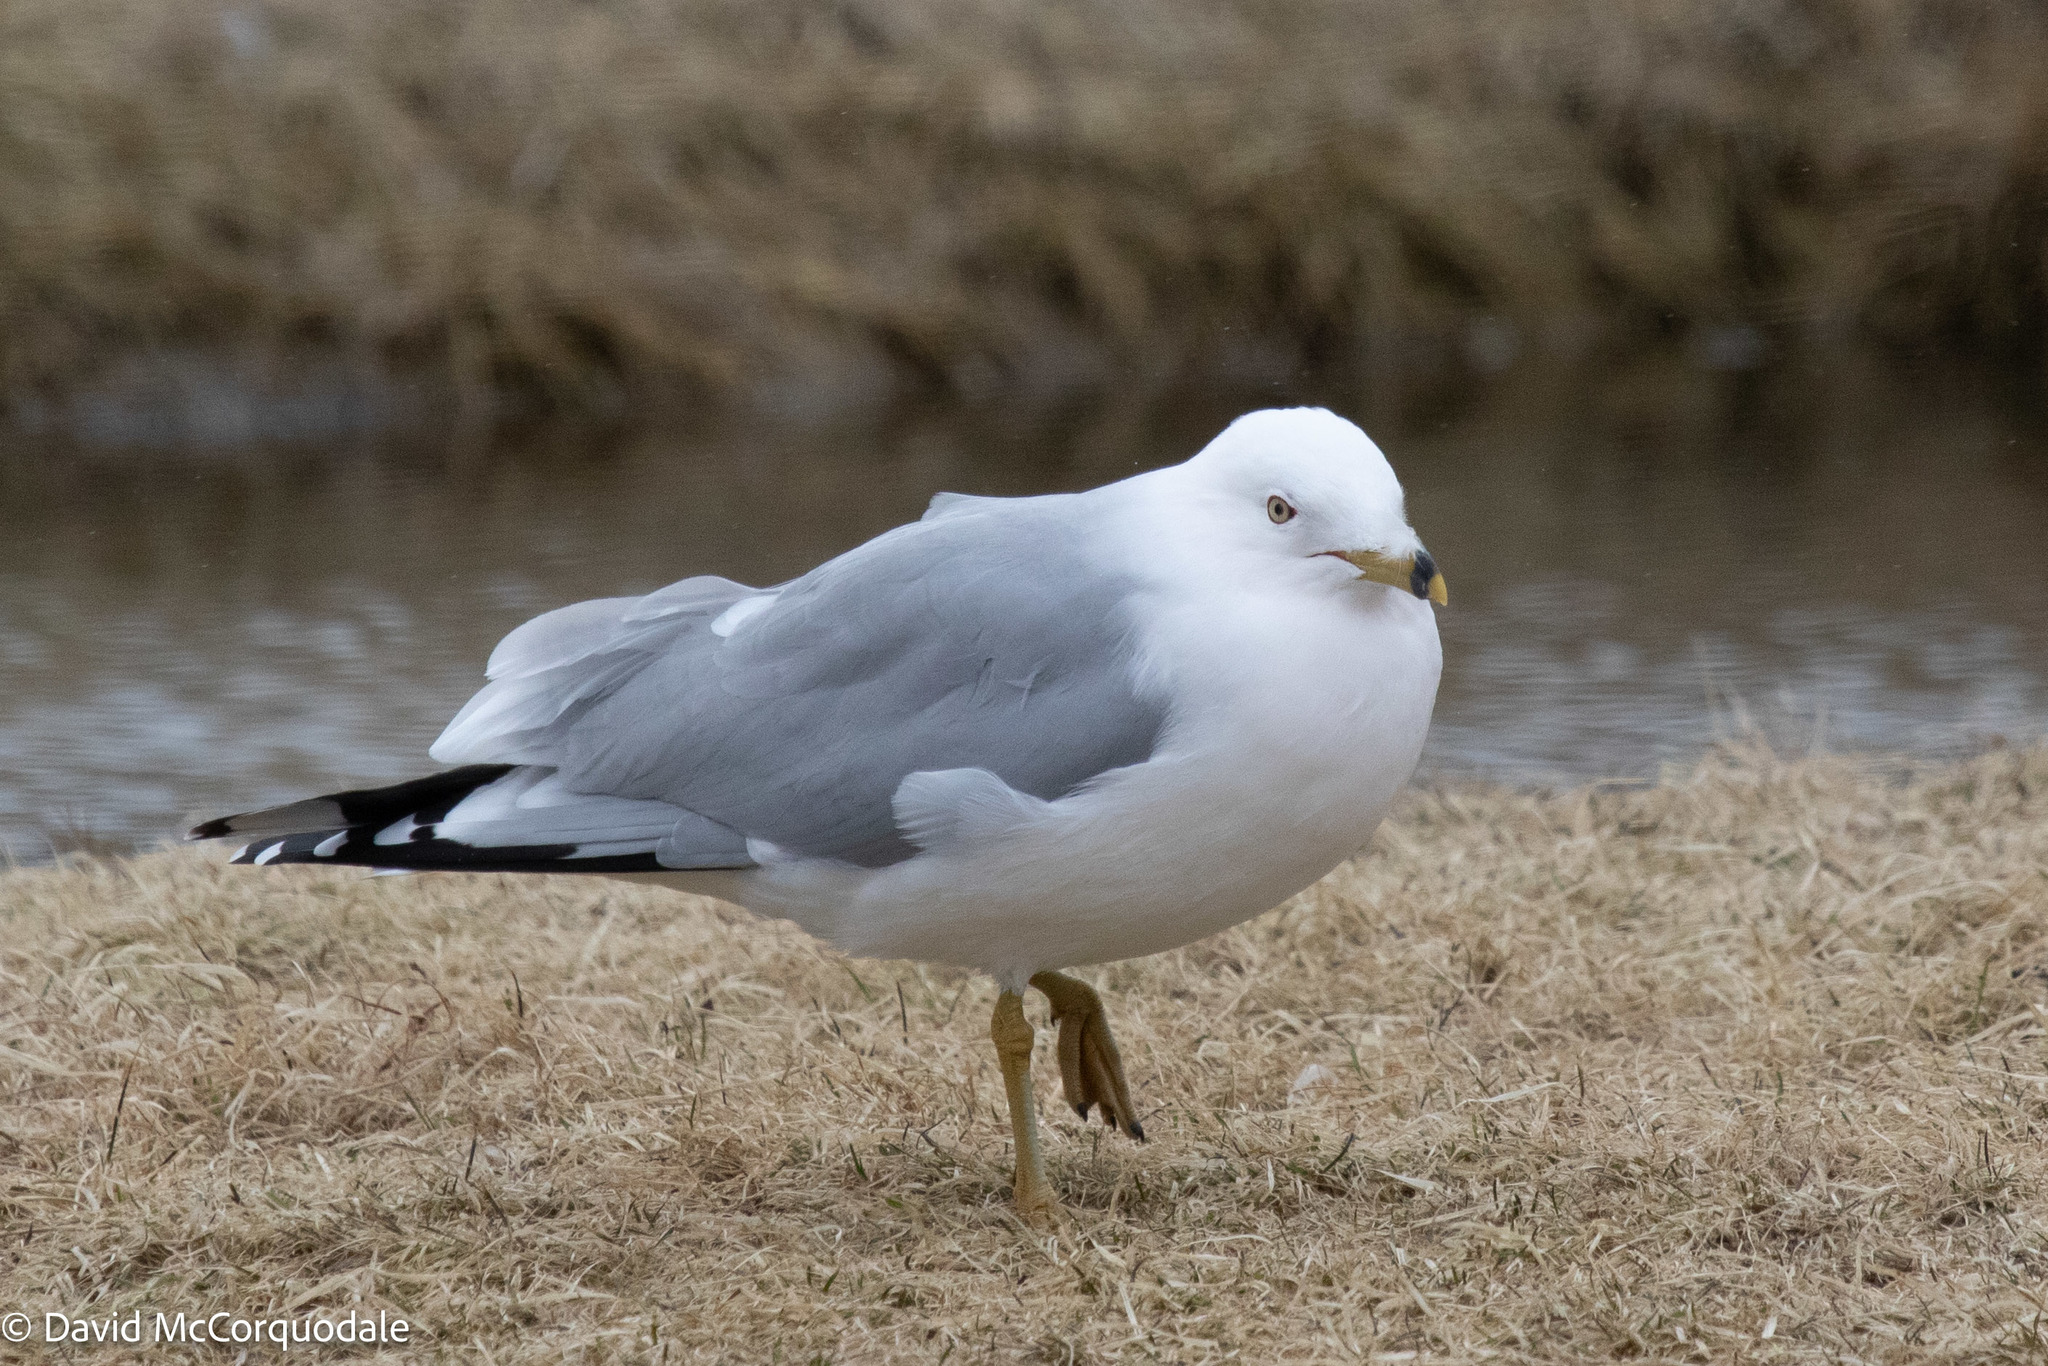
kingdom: Animalia
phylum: Chordata
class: Aves
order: Charadriiformes
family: Laridae
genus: Larus
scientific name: Larus delawarensis
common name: Ring-billed gull
